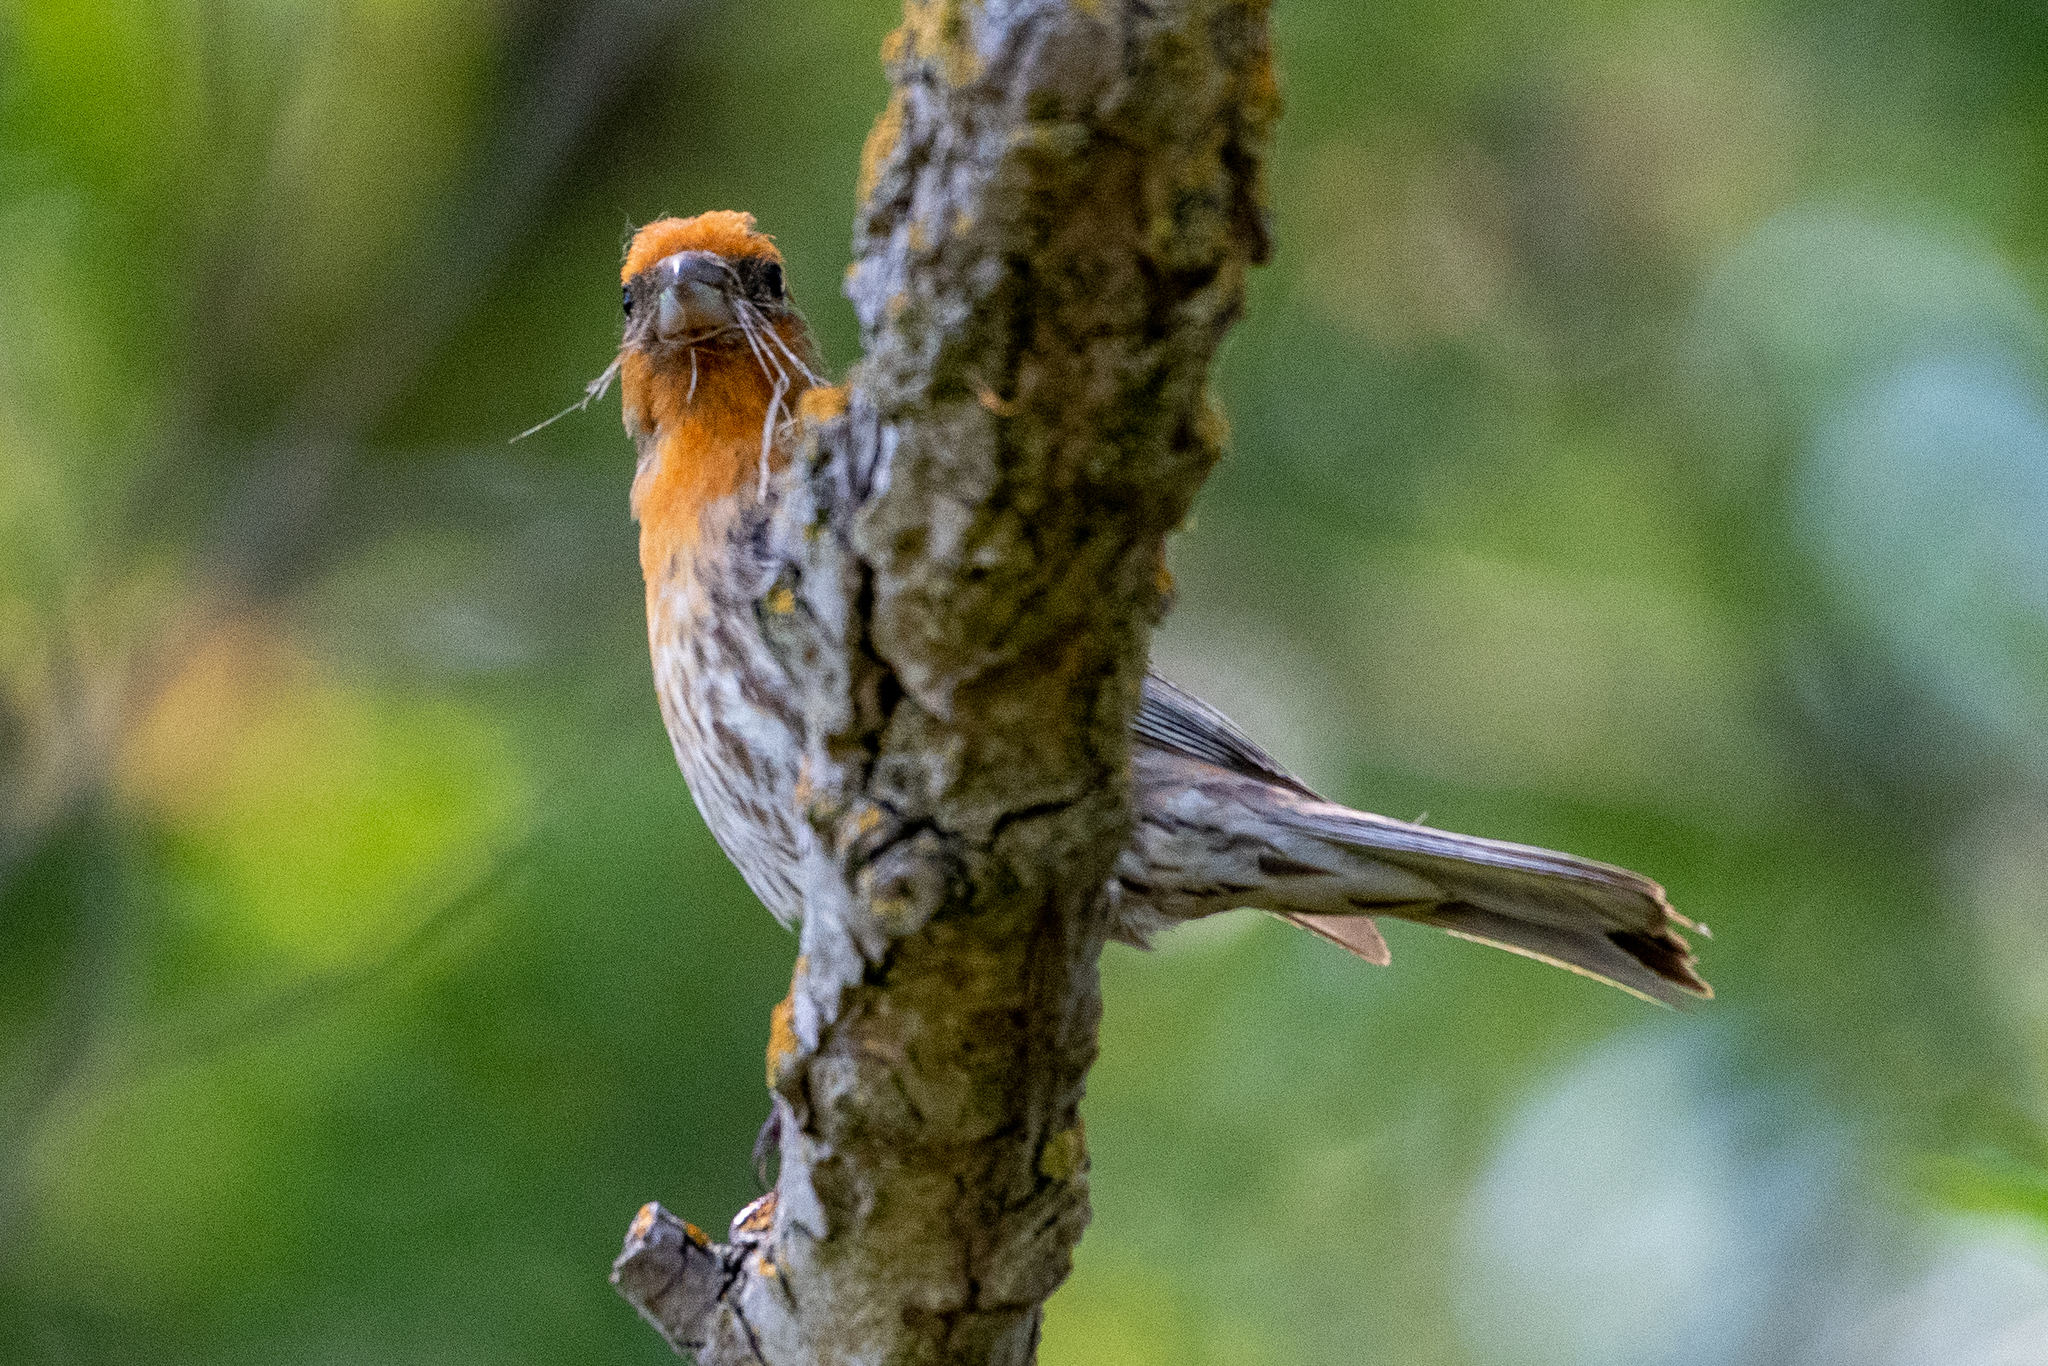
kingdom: Animalia
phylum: Chordata
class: Aves
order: Passeriformes
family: Fringillidae
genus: Haemorhous
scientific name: Haemorhous mexicanus
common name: House finch
